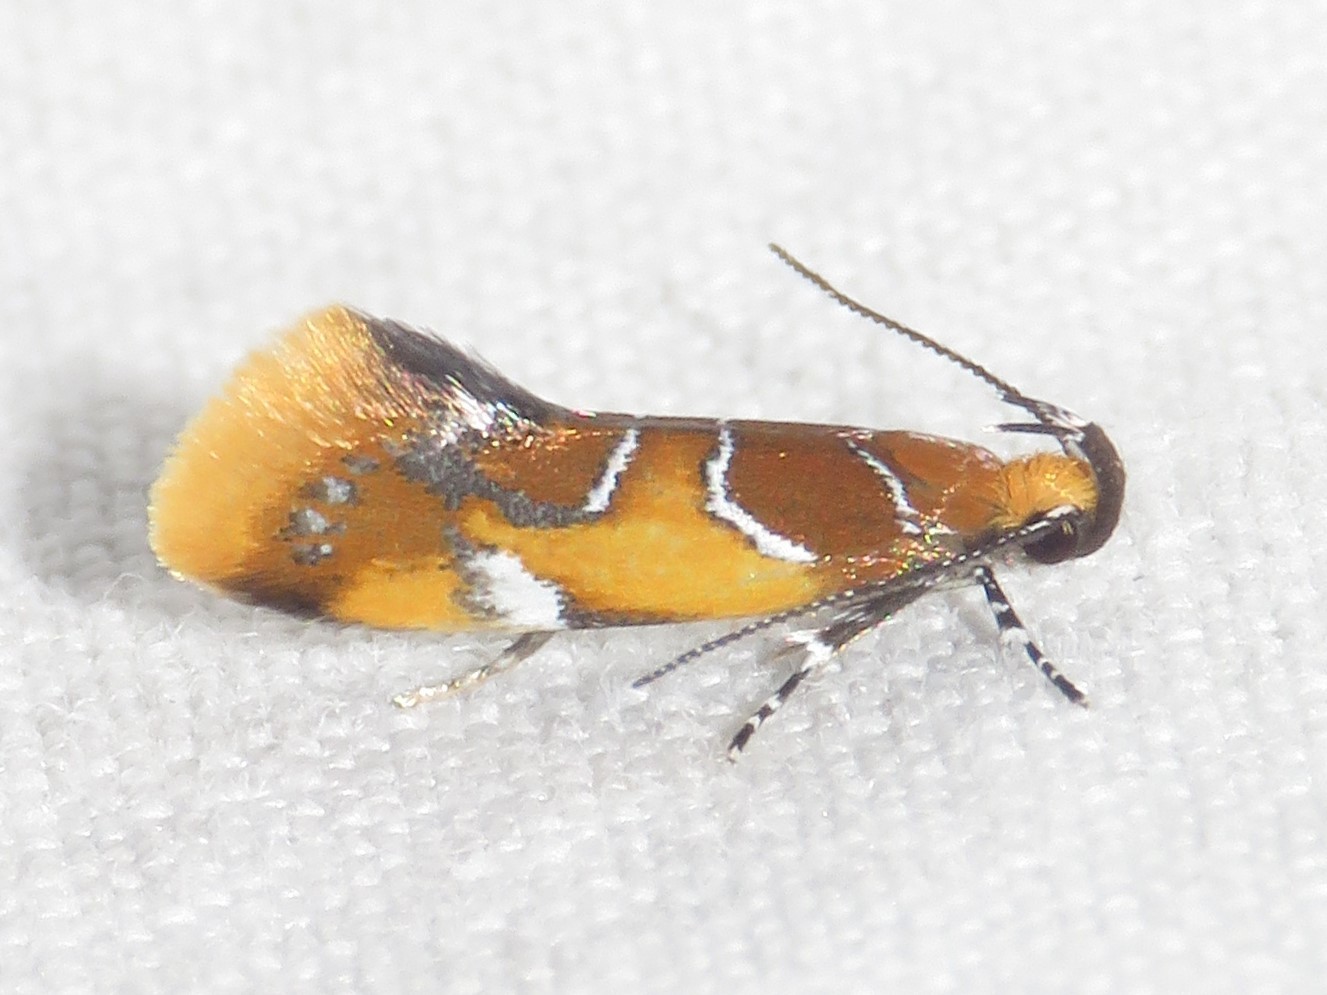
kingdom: Animalia
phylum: Arthropoda
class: Insecta
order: Lepidoptera
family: Oecophoridae
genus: Callima
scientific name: Callima argenticinctella
